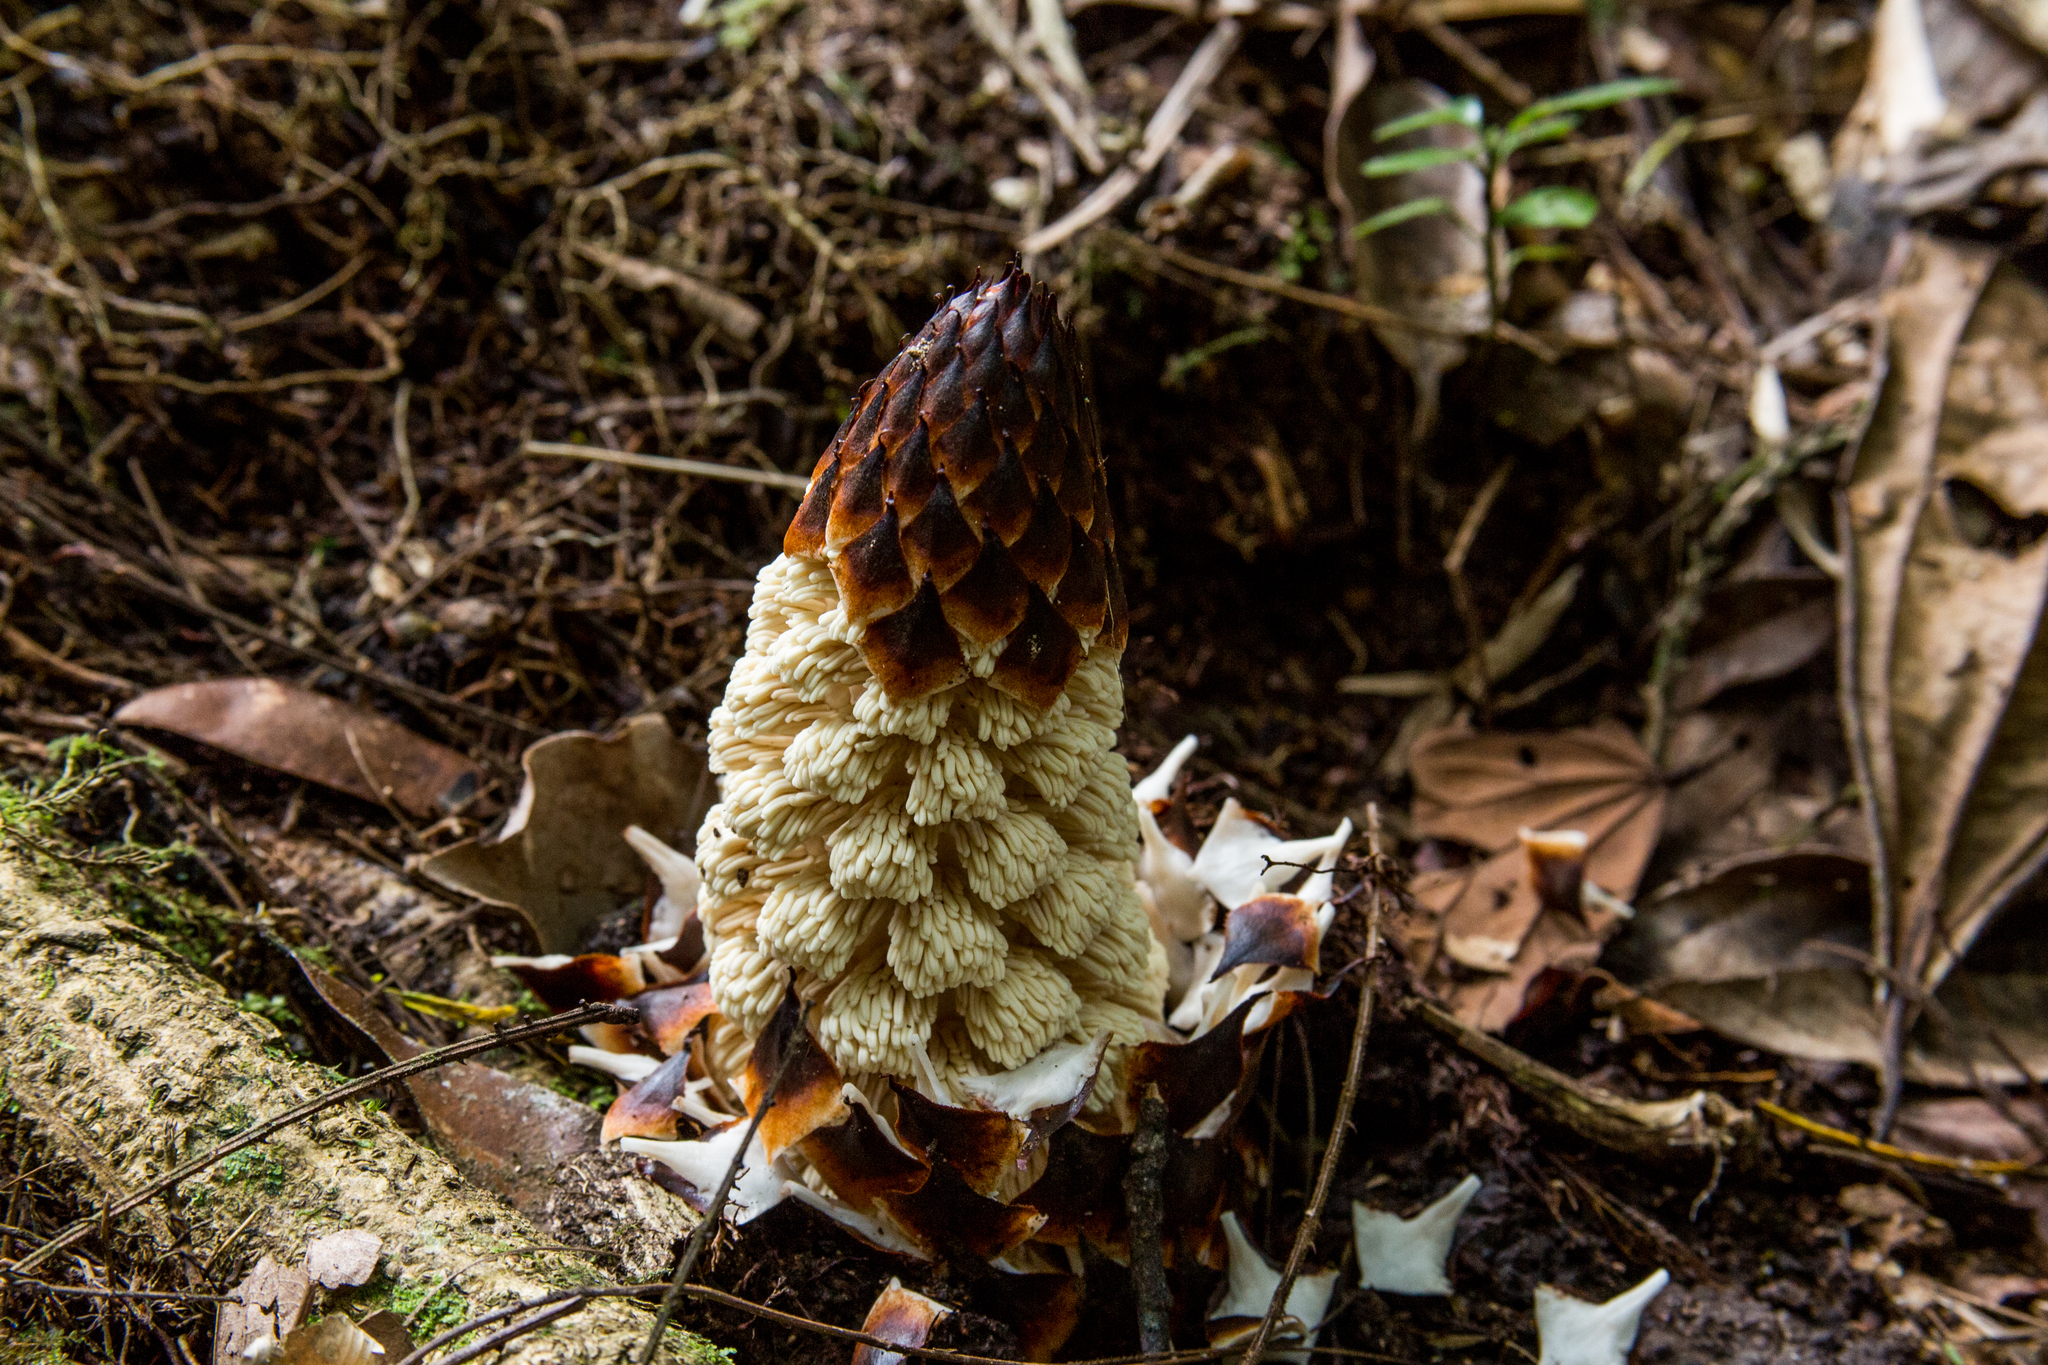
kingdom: Plantae
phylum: Tracheophyta
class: Magnoliopsida
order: Santalales
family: Balanophoraceae
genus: Lophophytum
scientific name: Lophophytum mirabile
